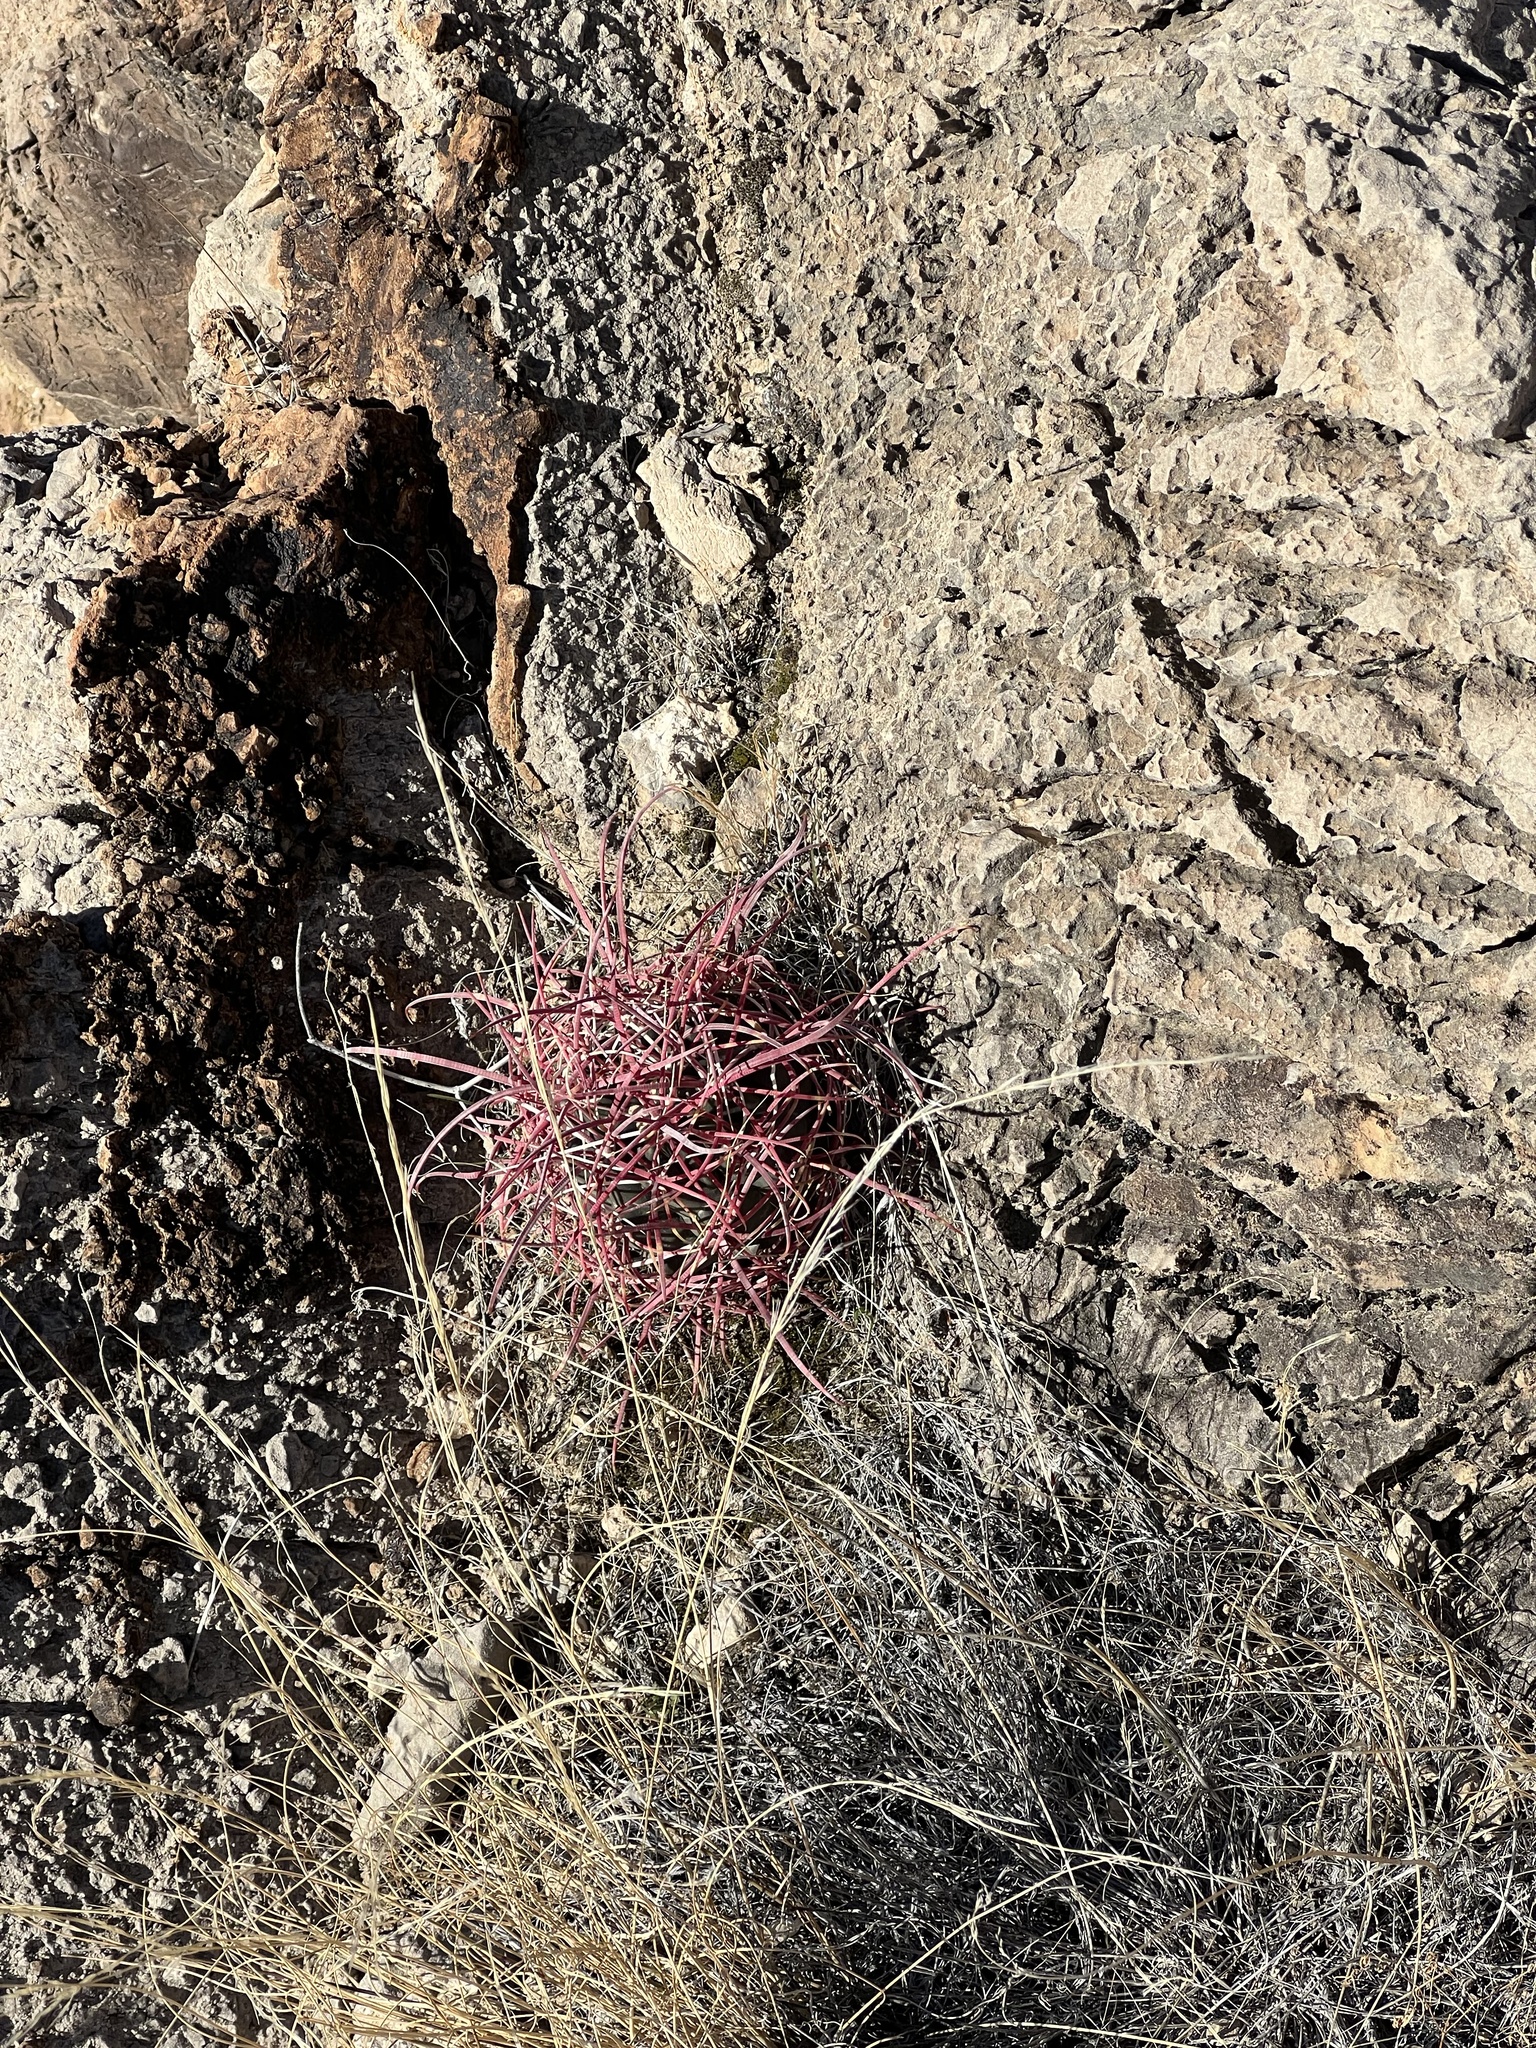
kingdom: Plantae
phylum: Tracheophyta
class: Magnoliopsida
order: Caryophyllales
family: Cactaceae
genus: Ferocactus
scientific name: Ferocactus cylindraceus
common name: California barrel cactus
